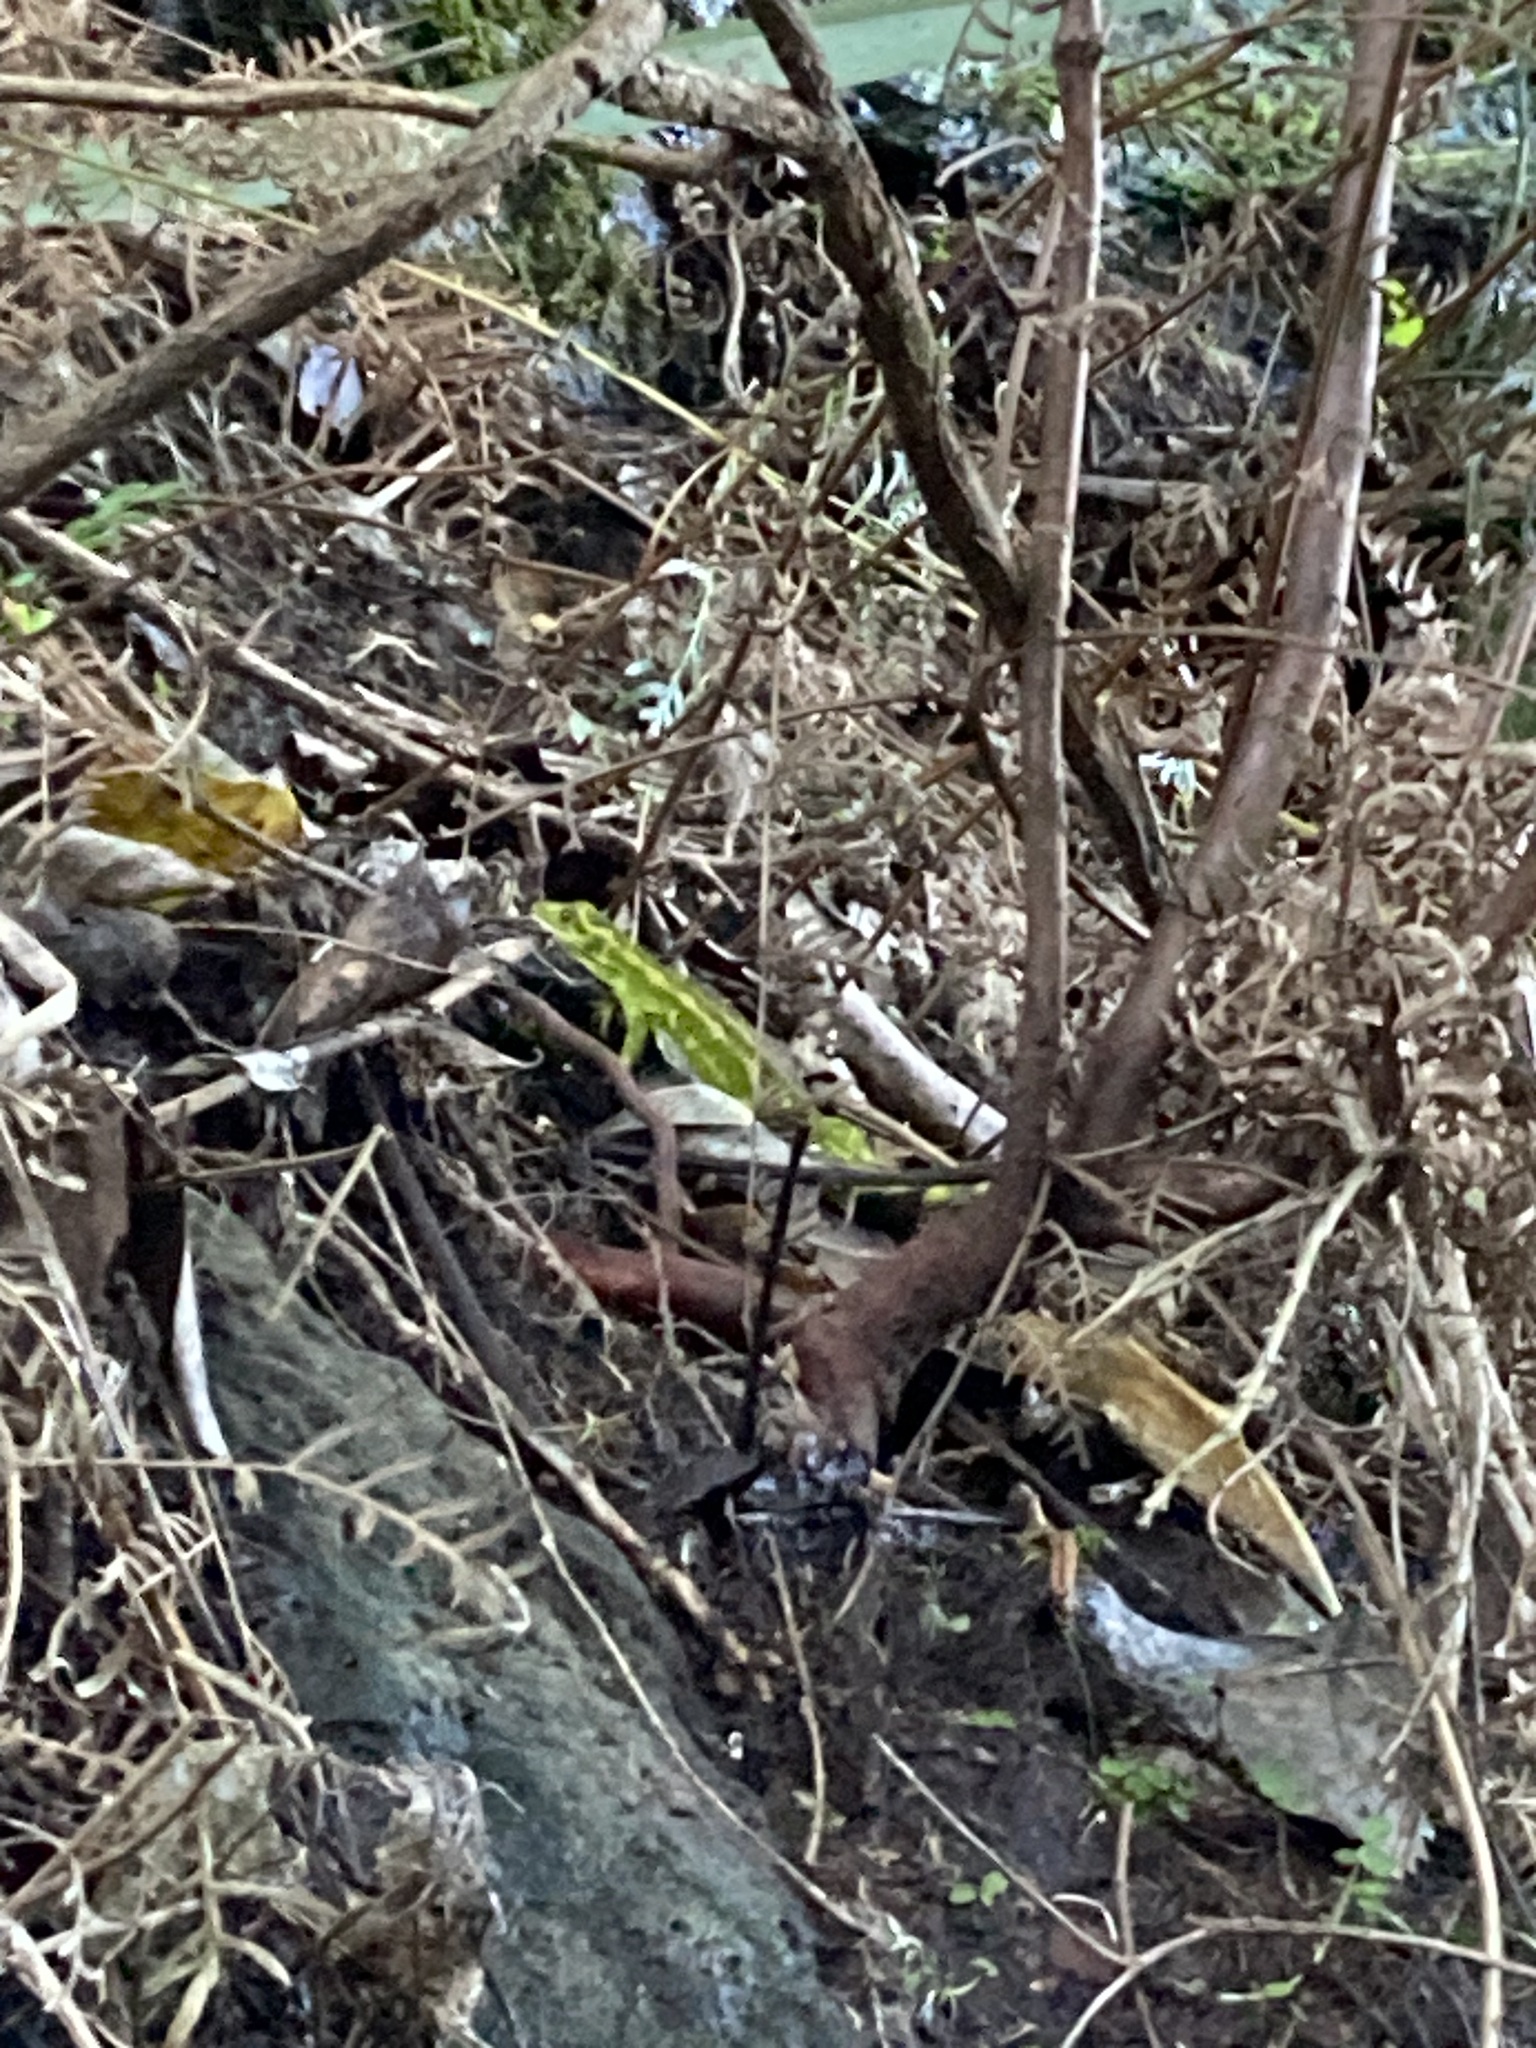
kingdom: Animalia
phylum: Chordata
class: Squamata
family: Diplodactylidae
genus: Naultinus
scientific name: Naultinus gemmeus
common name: Jewelled gecko
